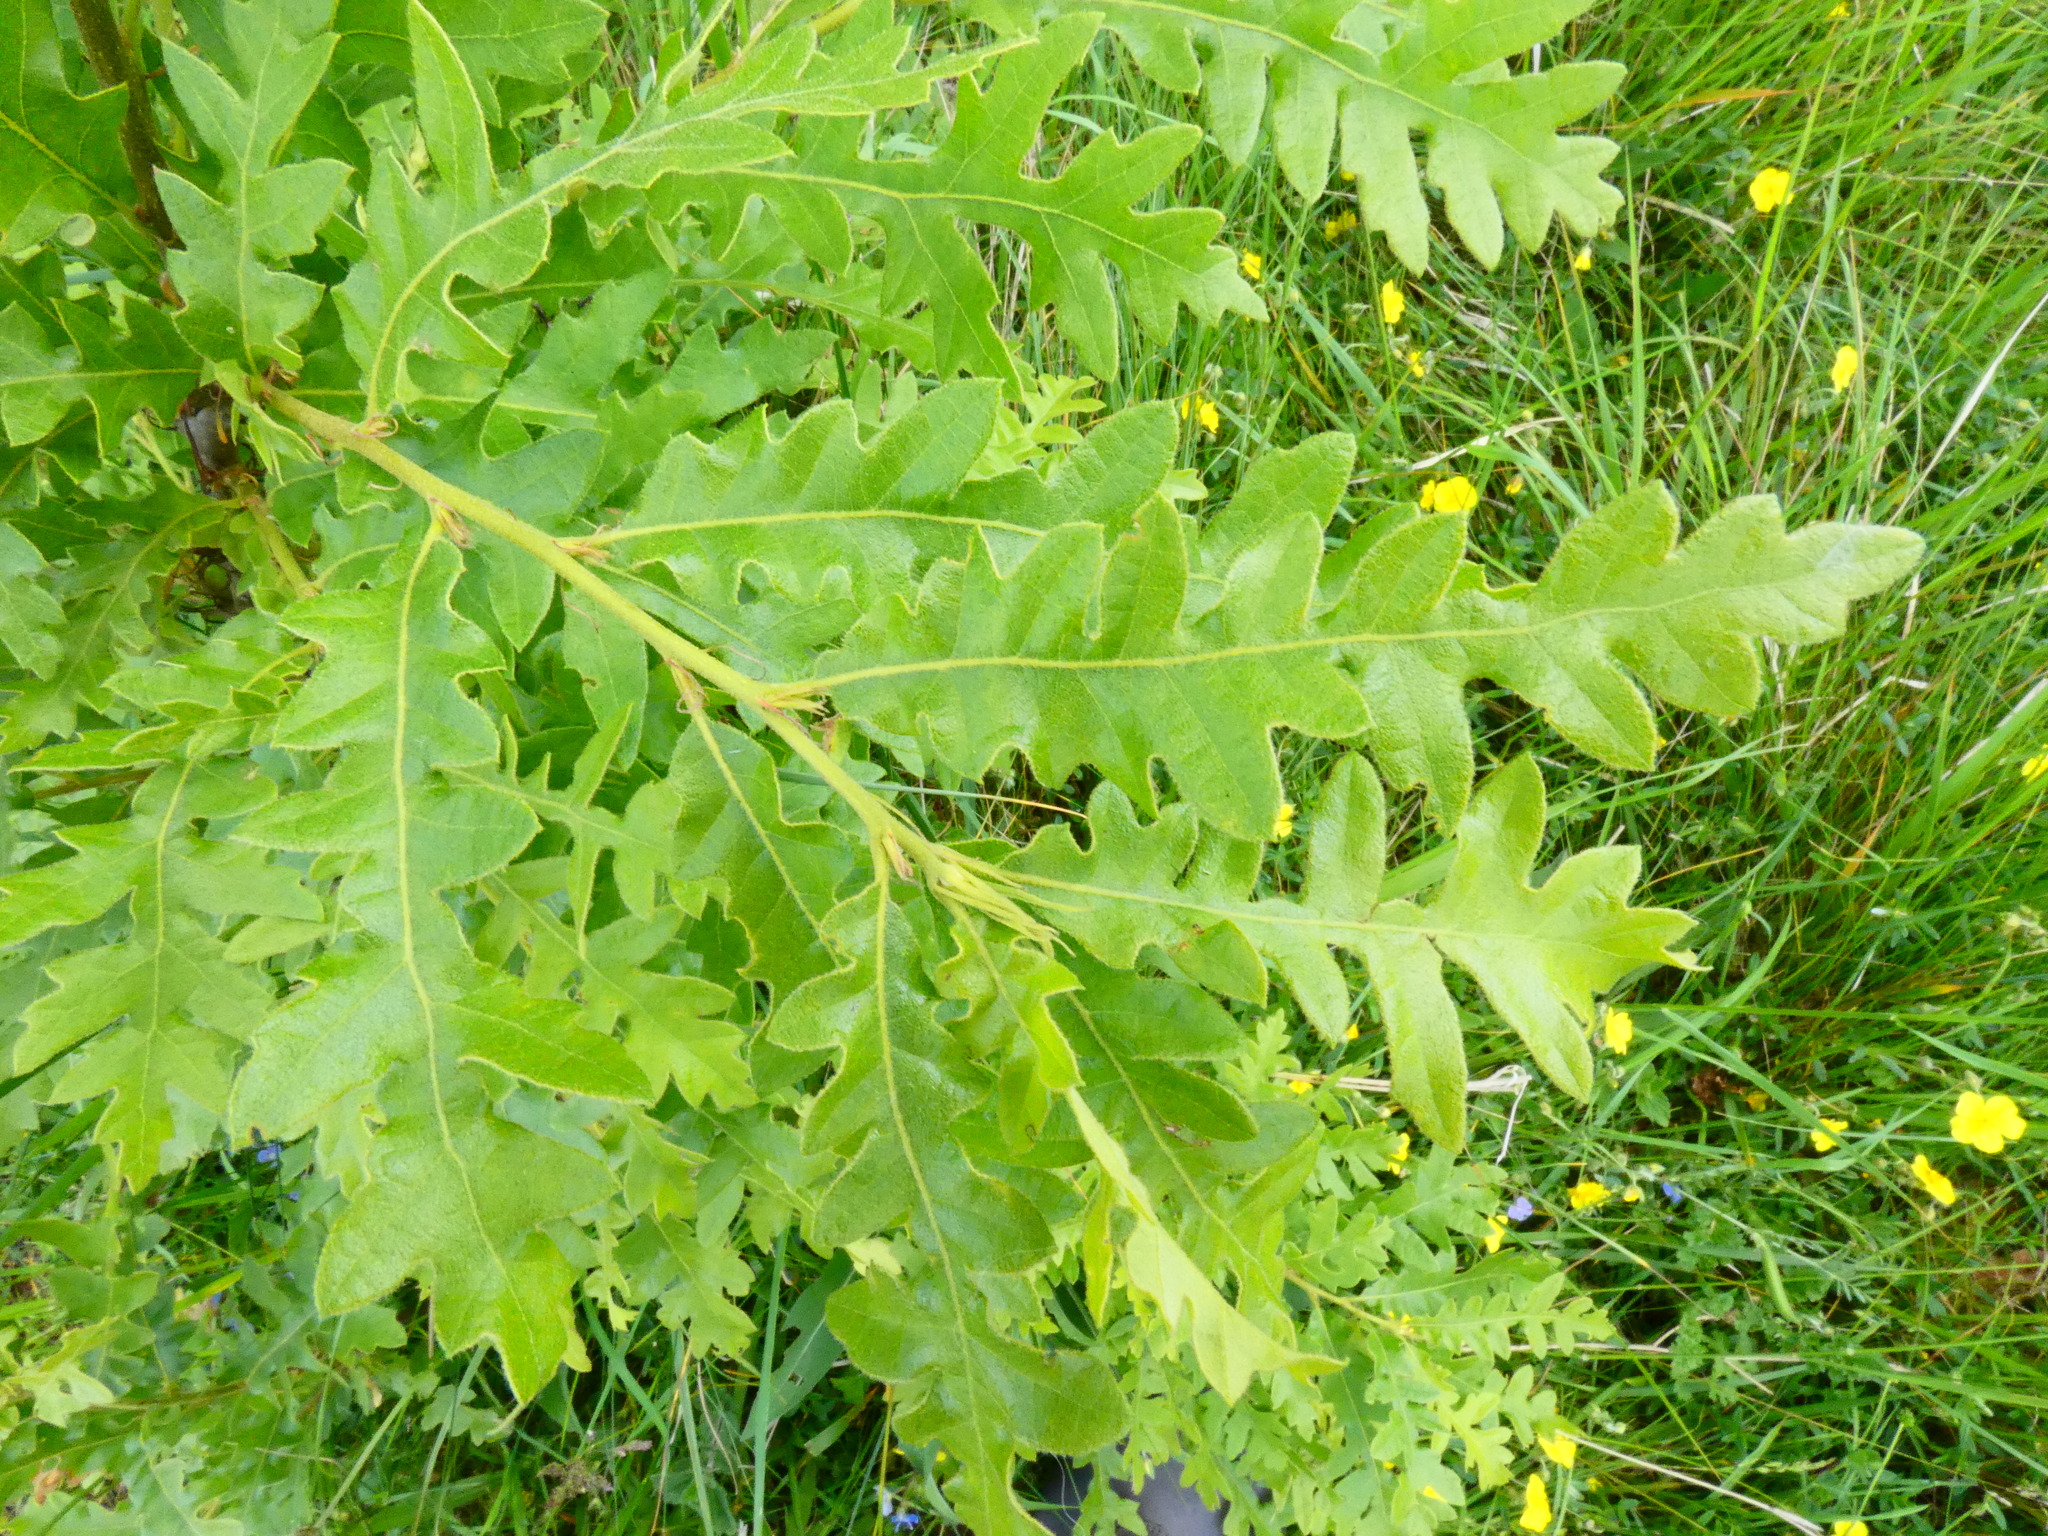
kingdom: Plantae
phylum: Tracheophyta
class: Magnoliopsida
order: Fagales
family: Fagaceae
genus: Quercus
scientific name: Quercus cerris
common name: Turkey oak
